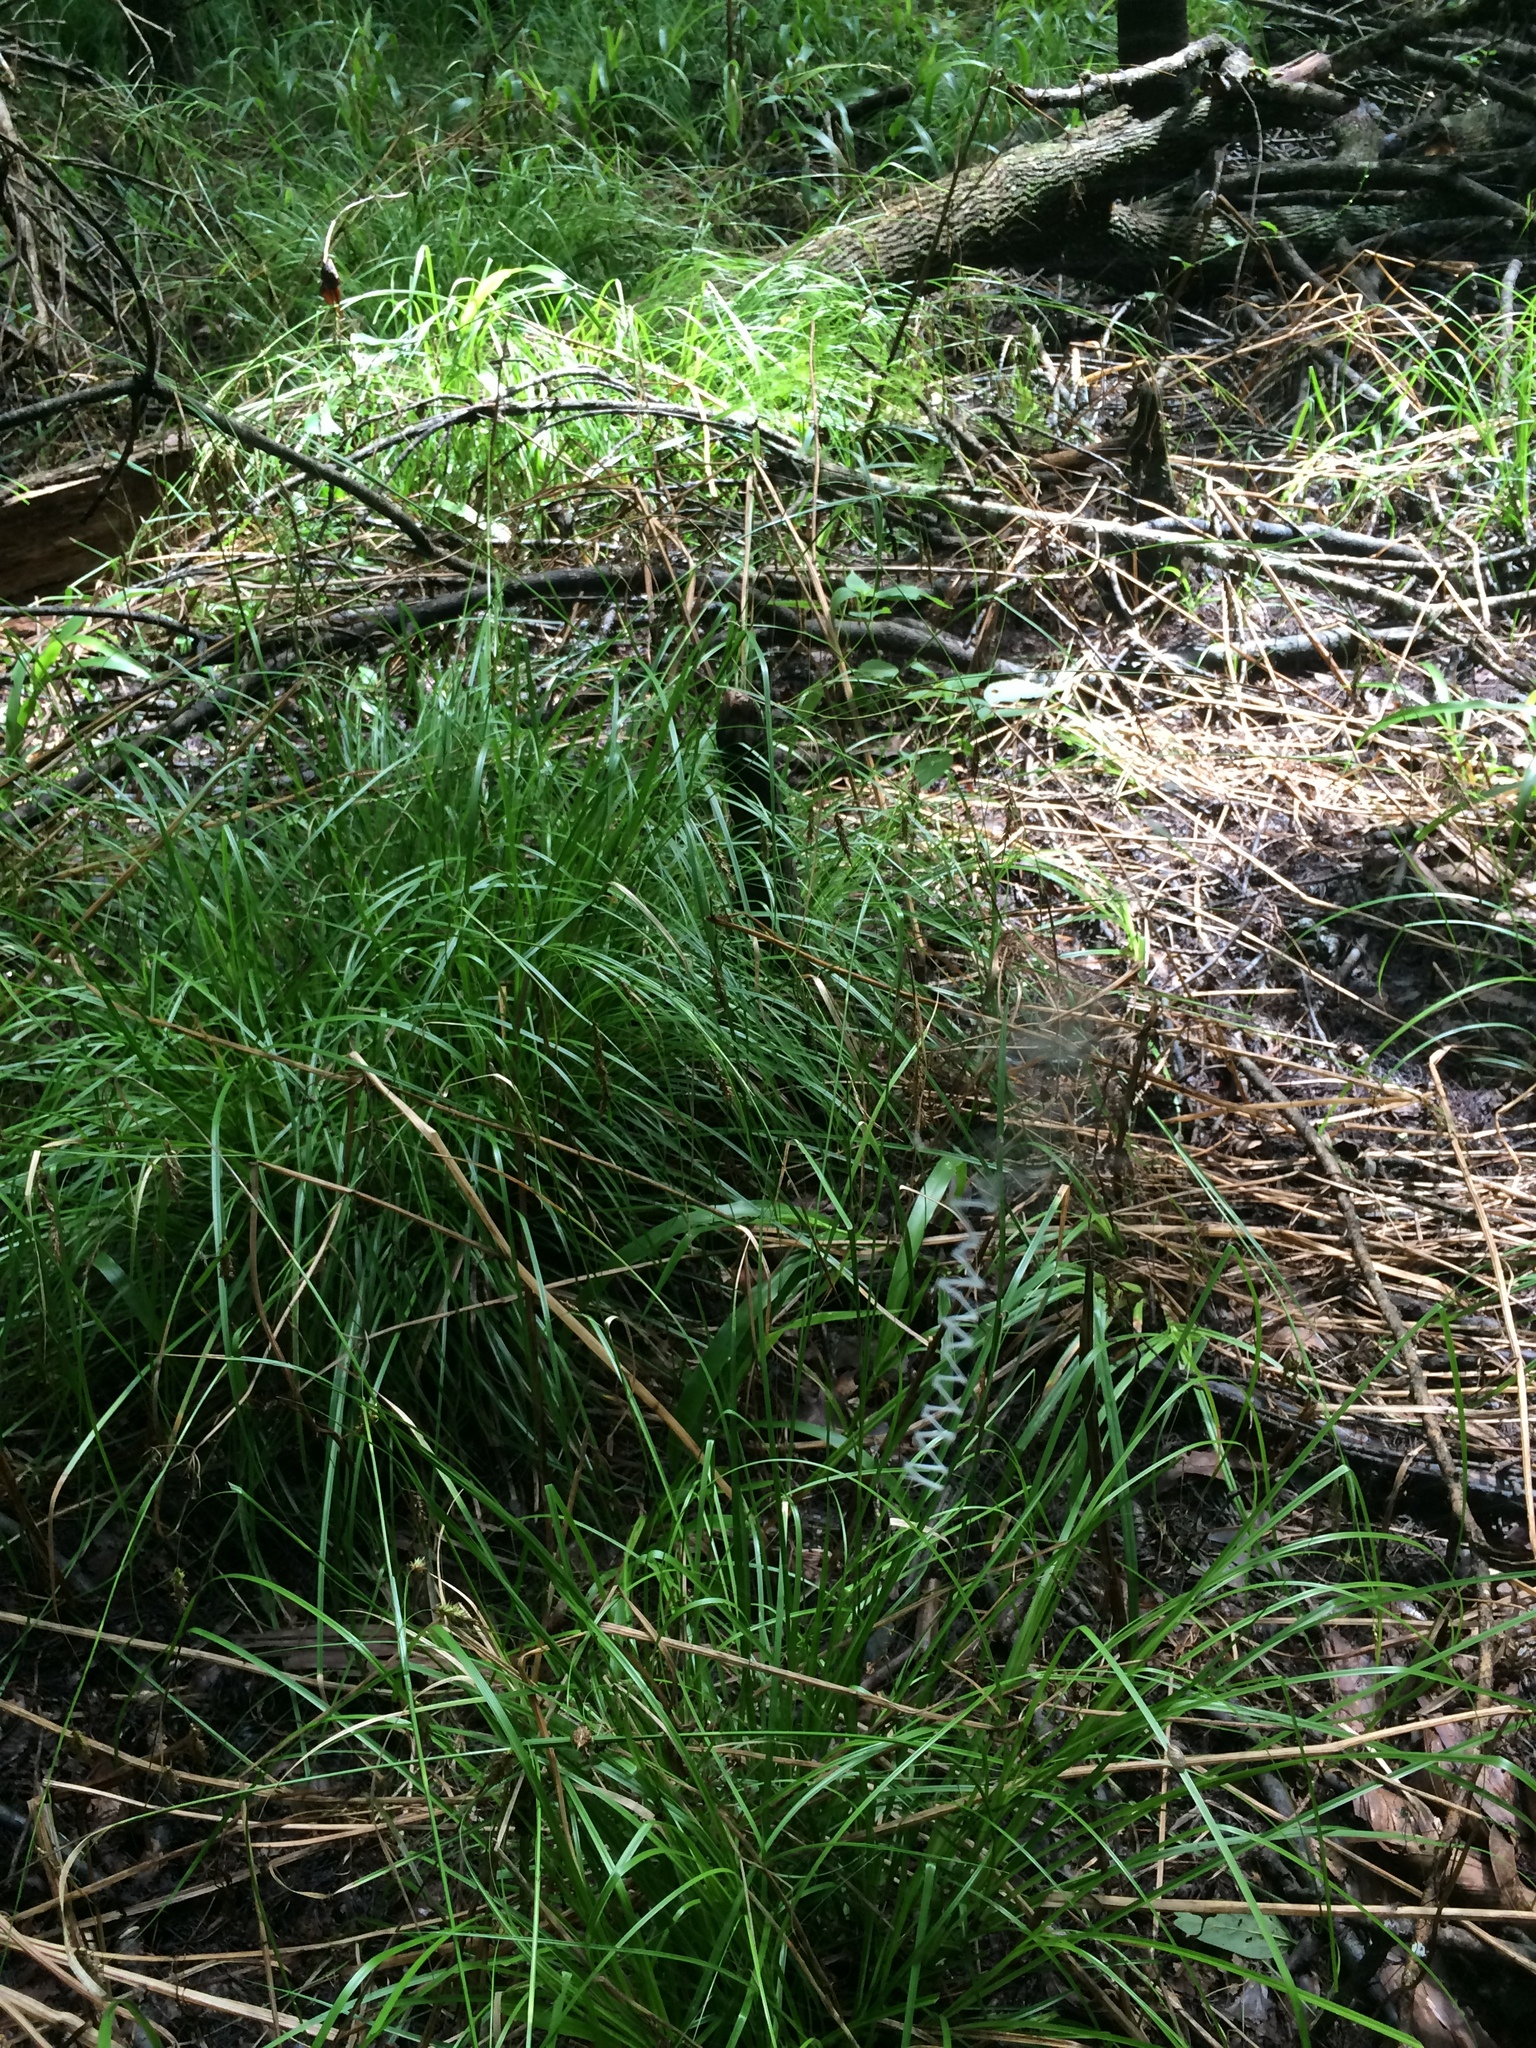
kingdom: Animalia
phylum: Arthropoda
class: Arachnida
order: Araneae
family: Araneidae
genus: Argiope
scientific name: Argiope aurantia
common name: Orb weavers
